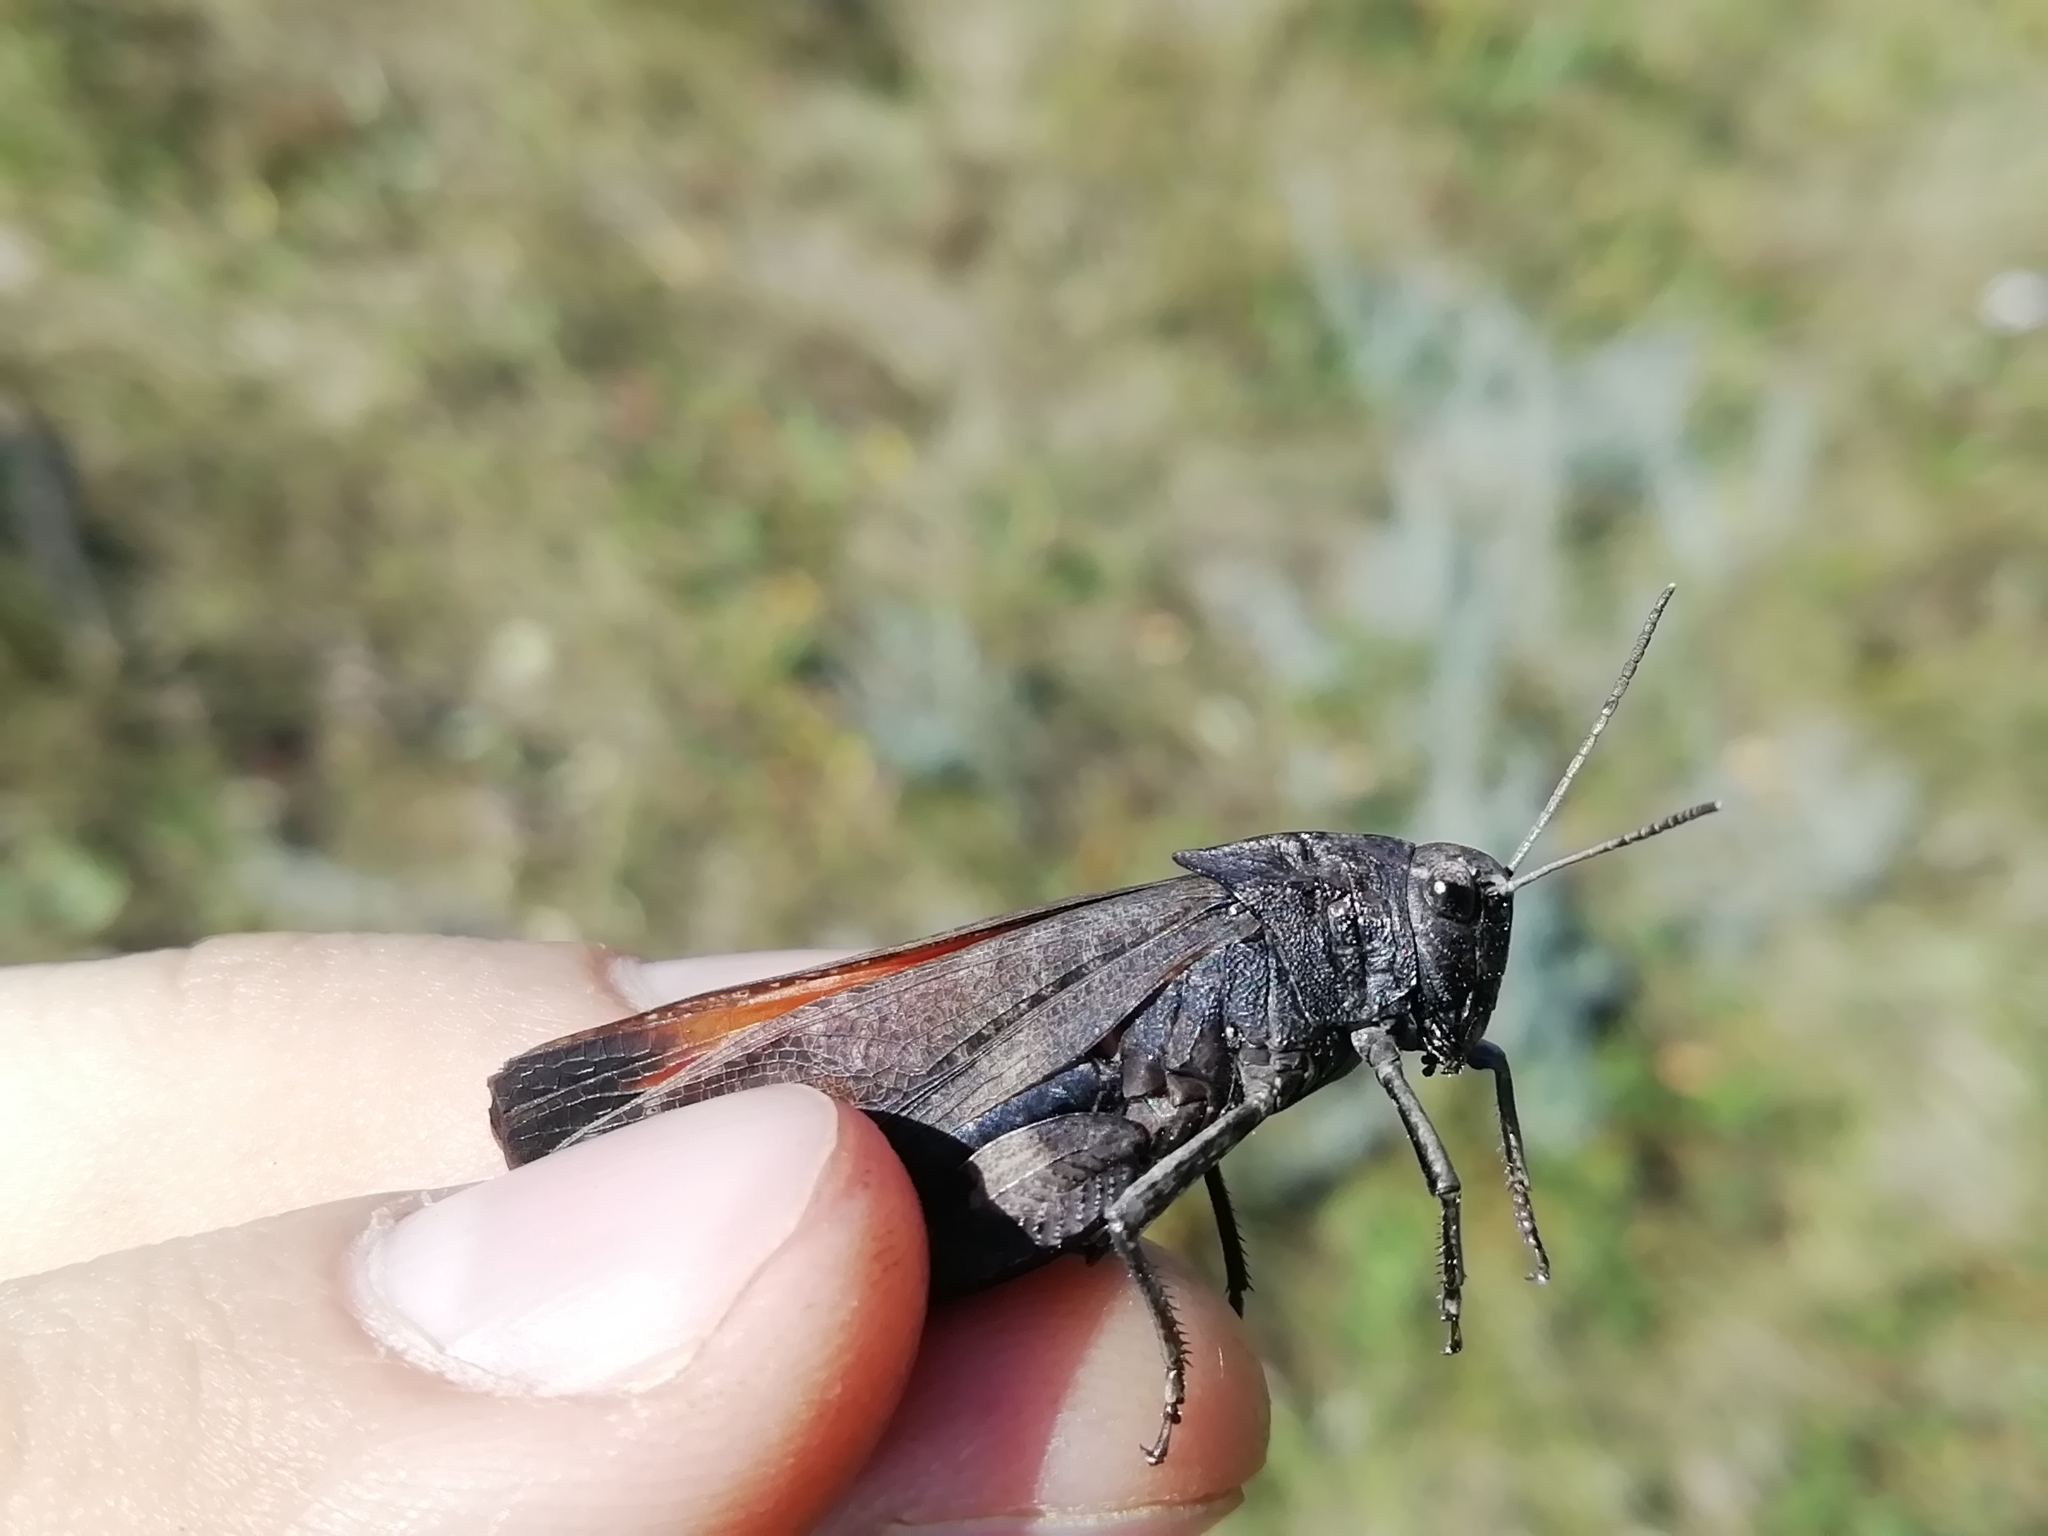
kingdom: Animalia
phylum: Arthropoda
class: Insecta
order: Orthoptera
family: Acrididae
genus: Psophus
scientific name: Psophus stridulus
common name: Rattle grasshopper
